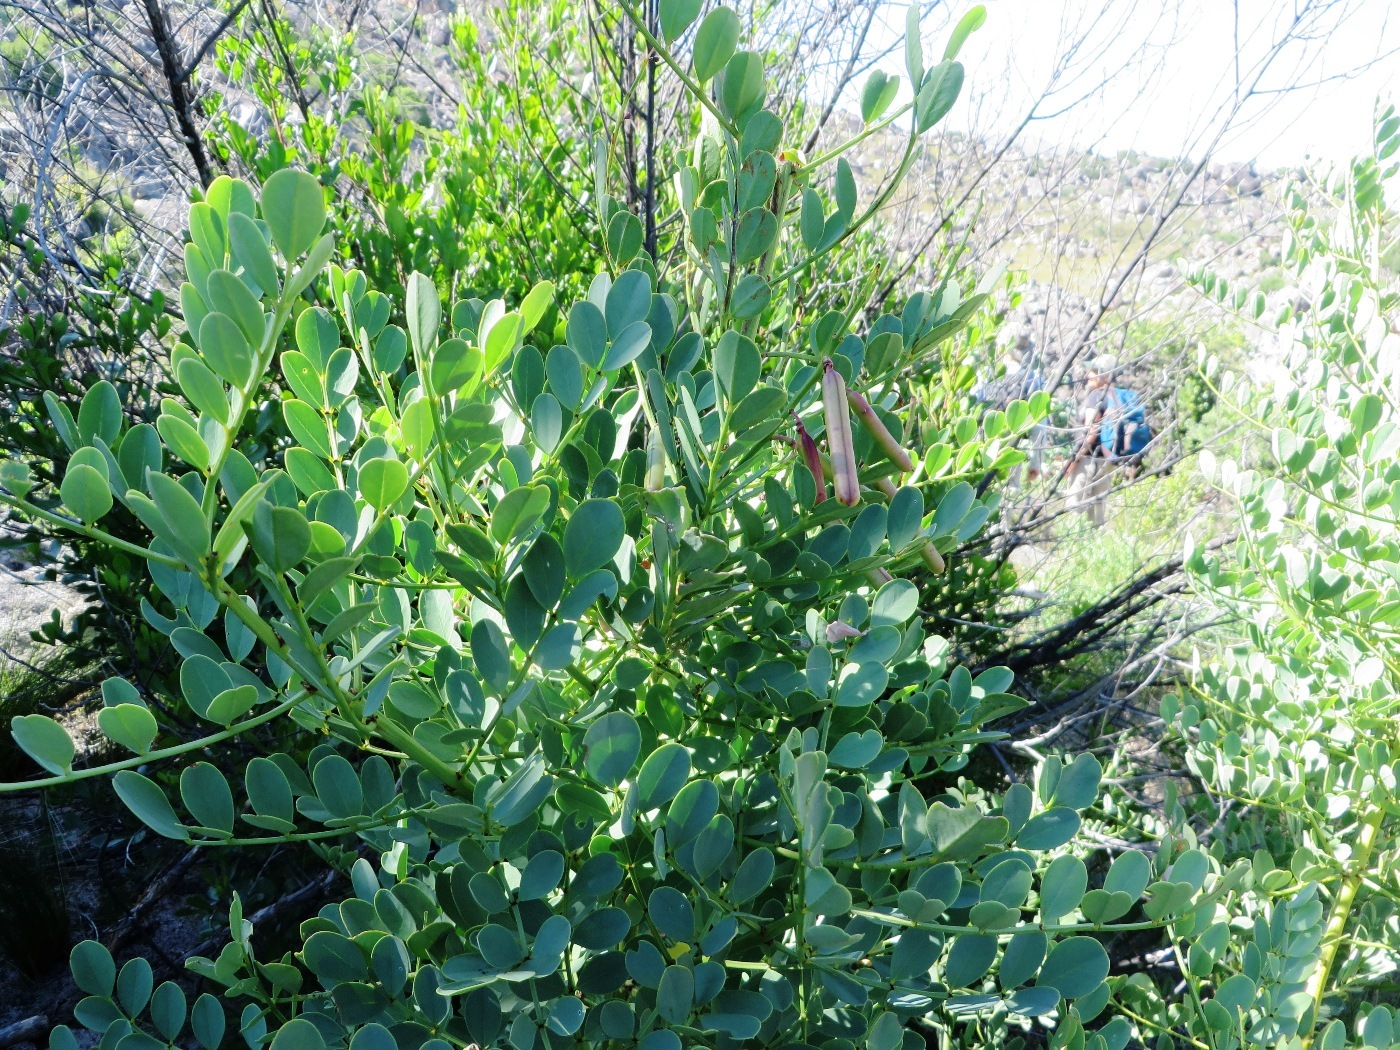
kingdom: Plantae
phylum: Tracheophyta
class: Magnoliopsida
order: Fabales
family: Fabaceae
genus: Indigofera
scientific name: Indigofera frutescens
